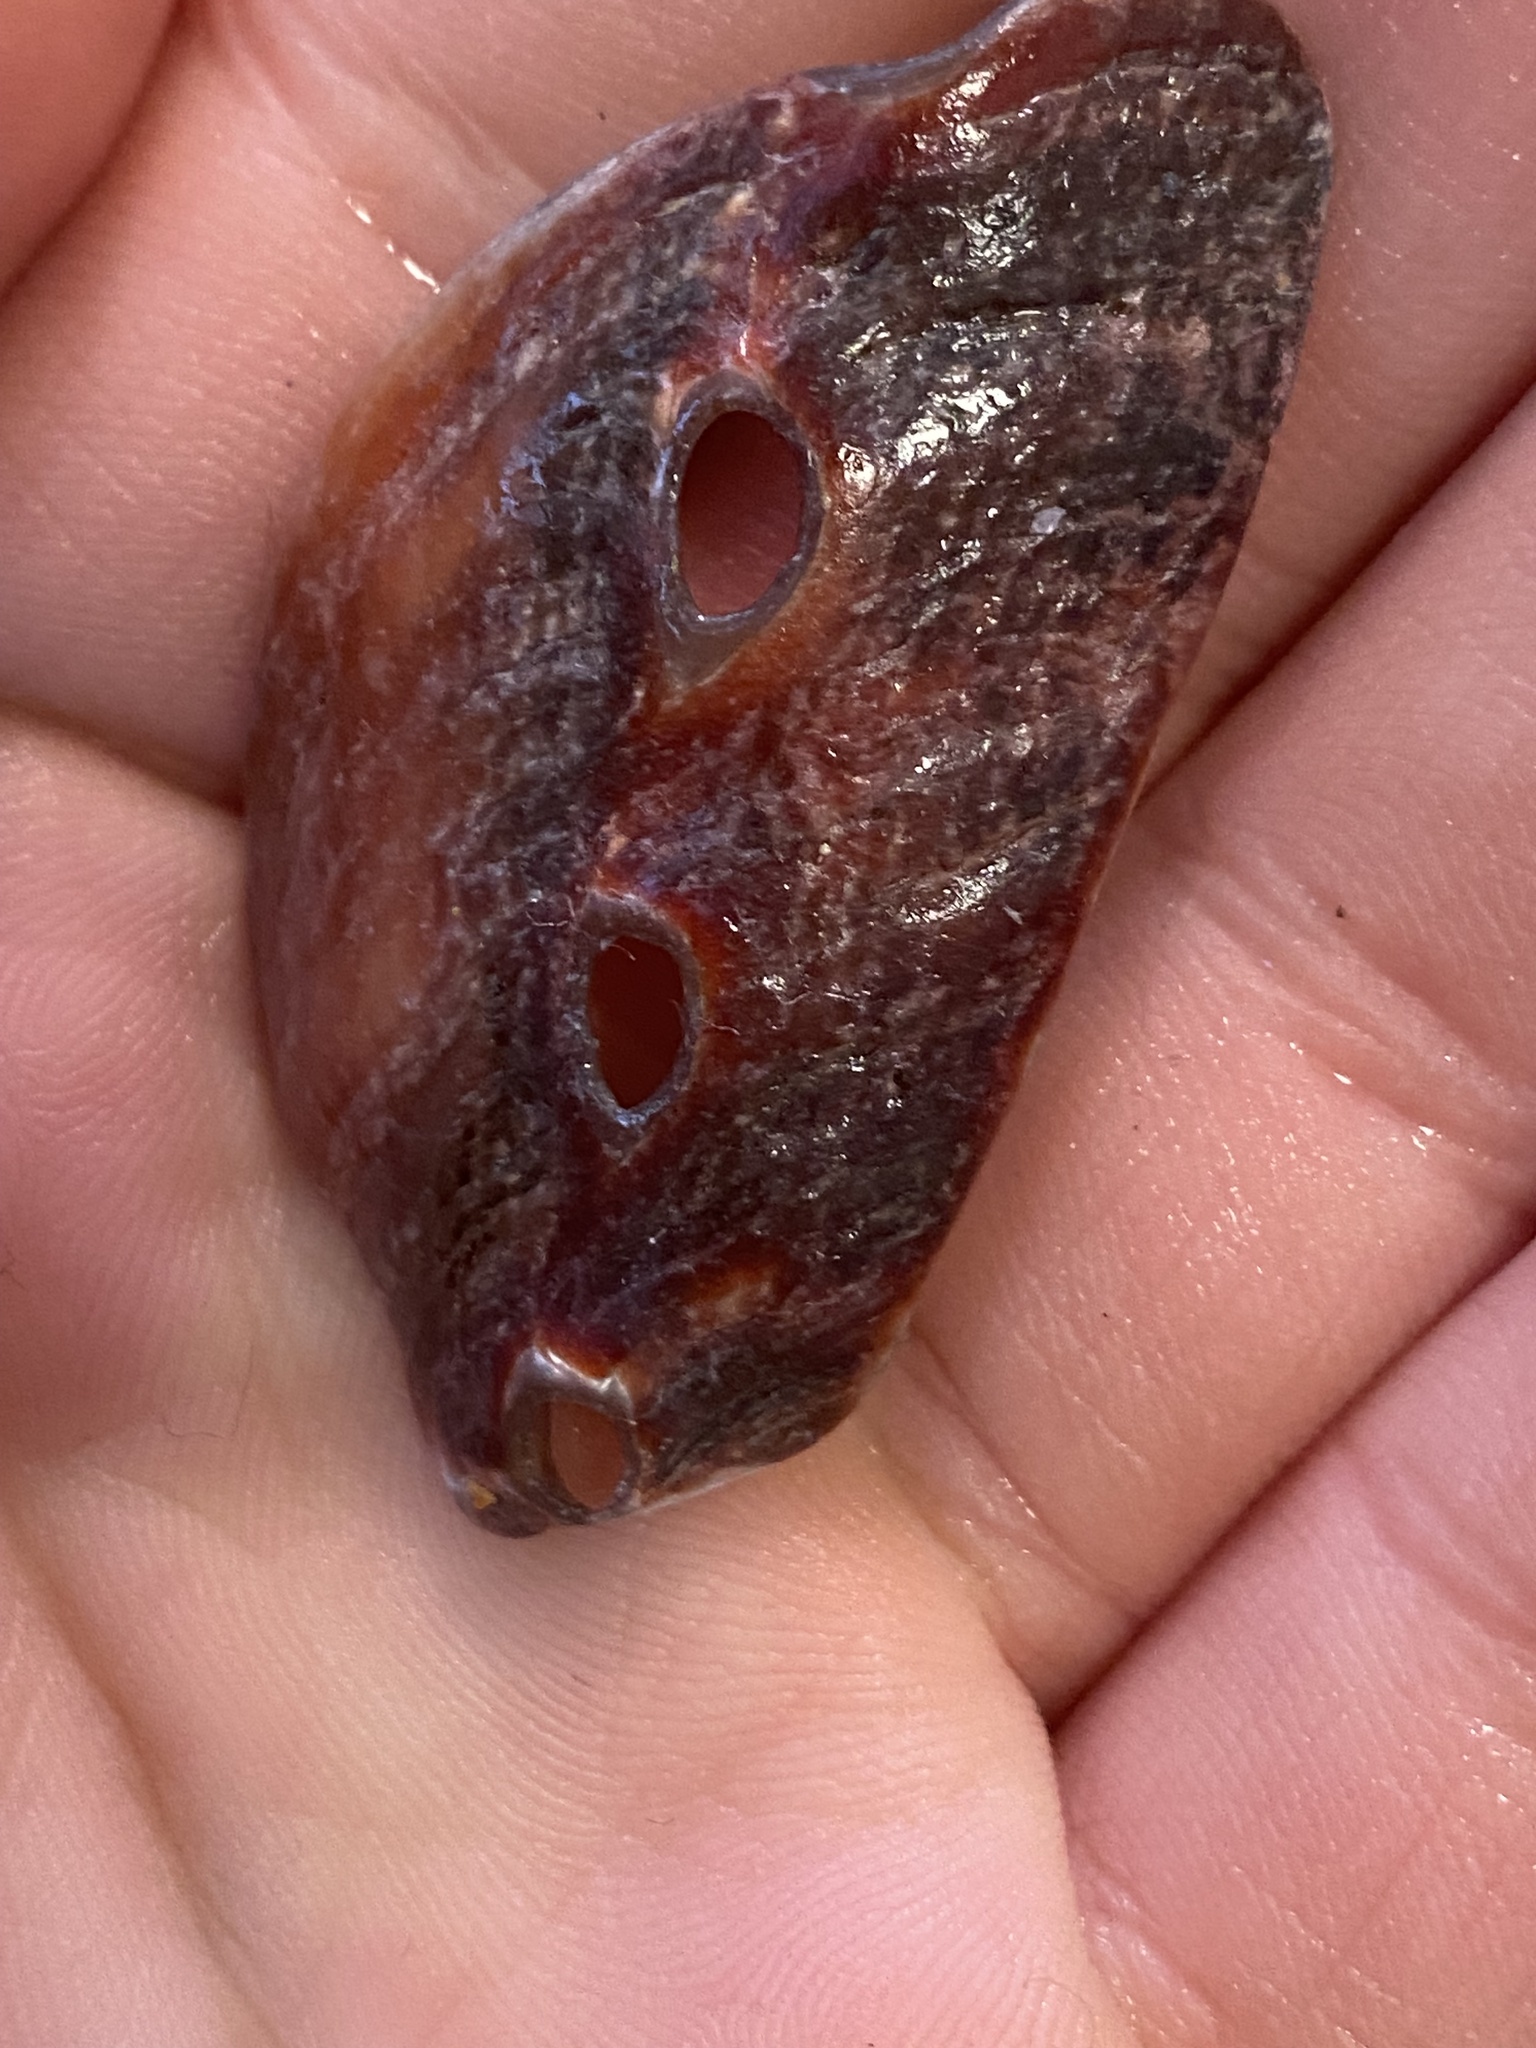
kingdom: Animalia
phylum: Mollusca
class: Gastropoda
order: Lepetellida
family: Haliotidae
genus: Haliotis
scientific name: Haliotis rufescens
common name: Red abalone
